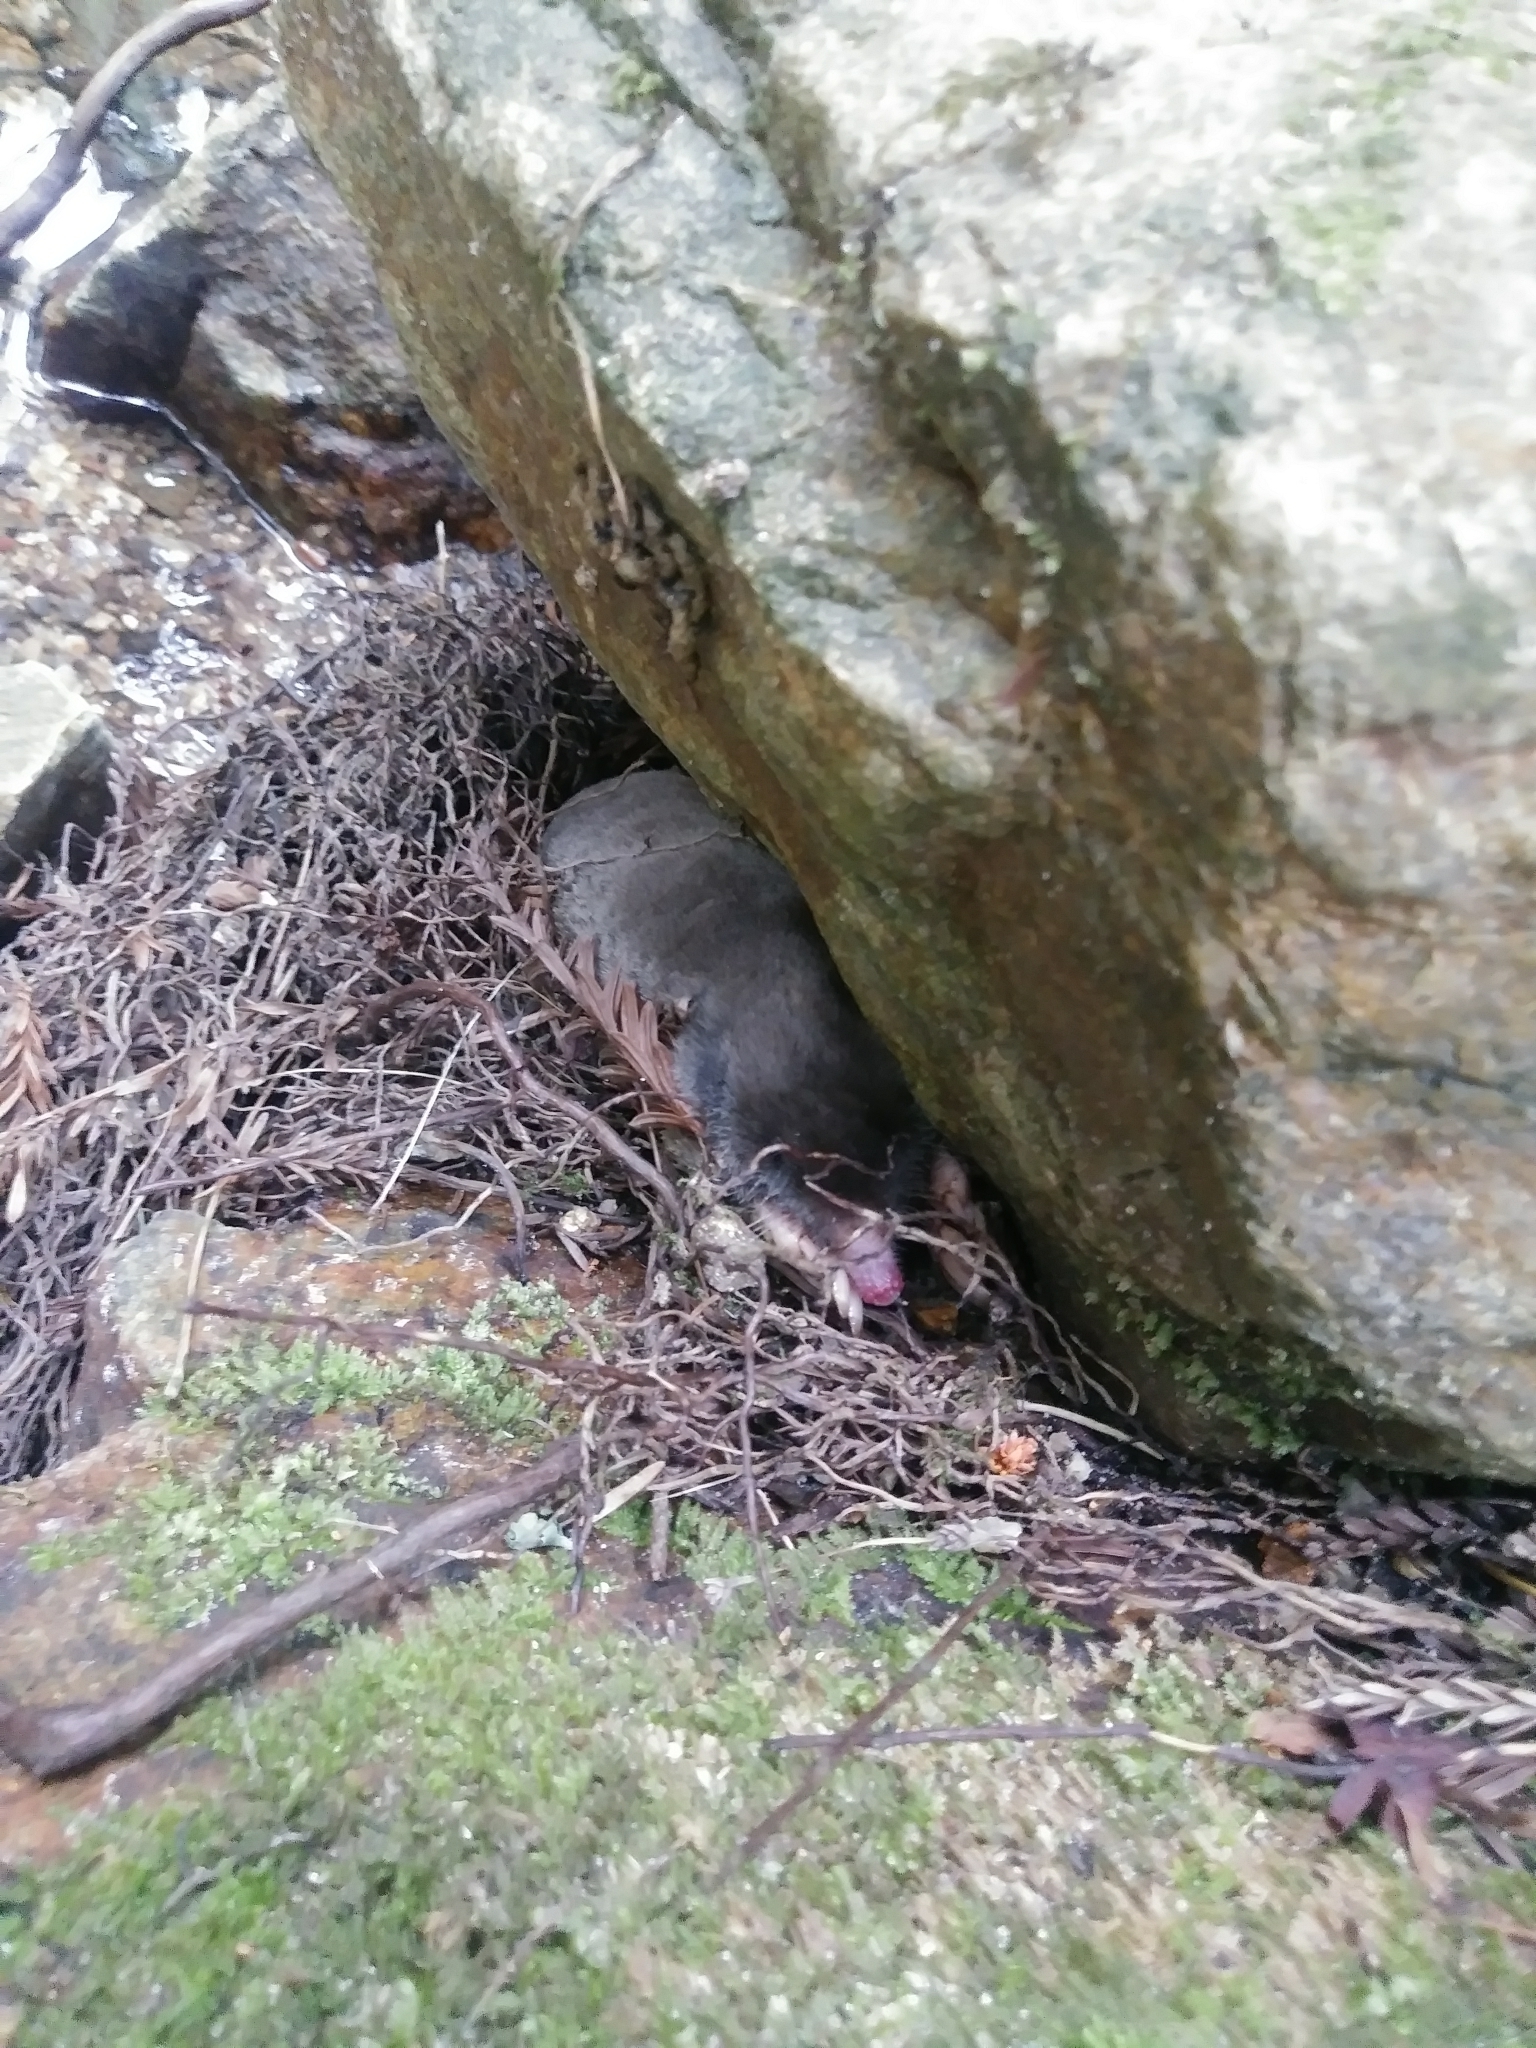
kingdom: Animalia
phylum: Chordata
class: Mammalia
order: Soricomorpha
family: Talpidae
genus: Scapanus
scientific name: Scapanus latimanus
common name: Broad-footed mole
